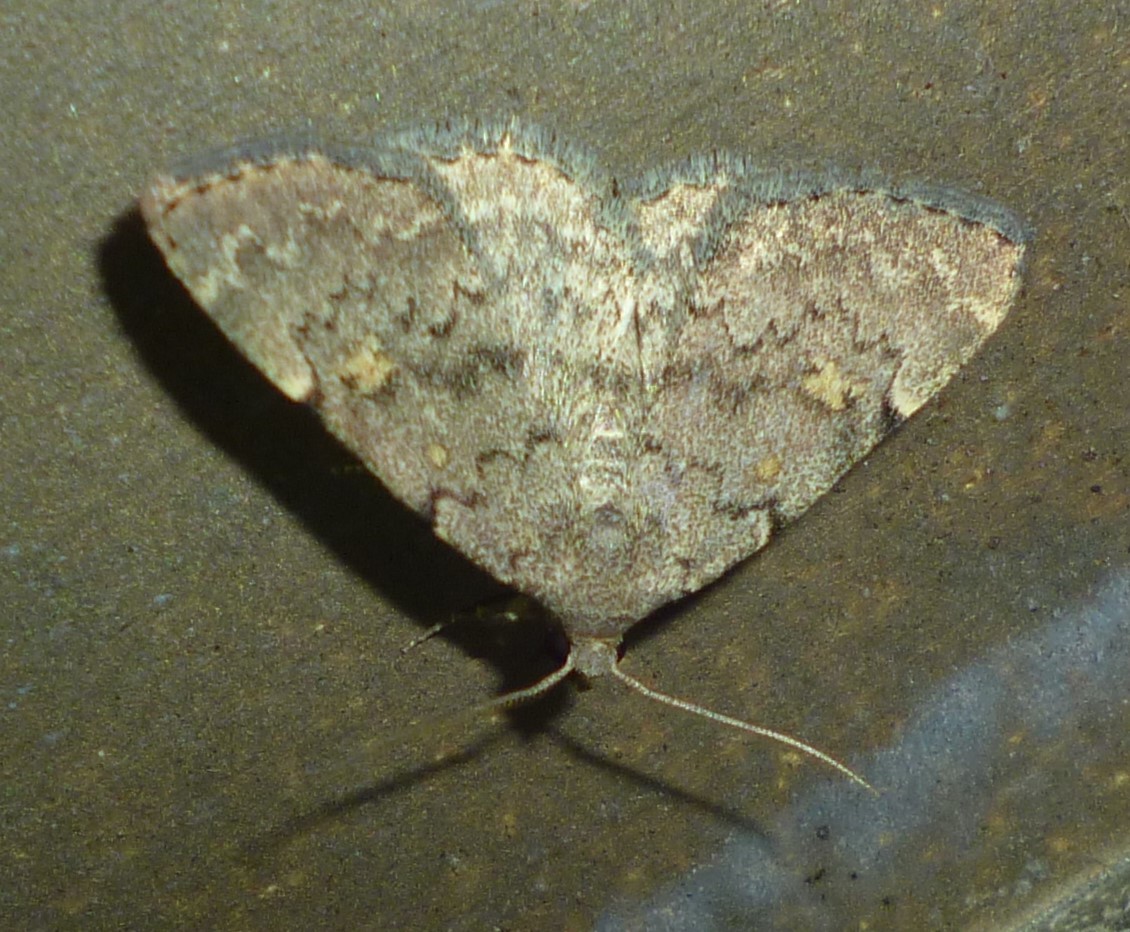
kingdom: Animalia
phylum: Arthropoda
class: Insecta
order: Lepidoptera
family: Erebidae
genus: Idia
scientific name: Idia aemula
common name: Common idia moth
